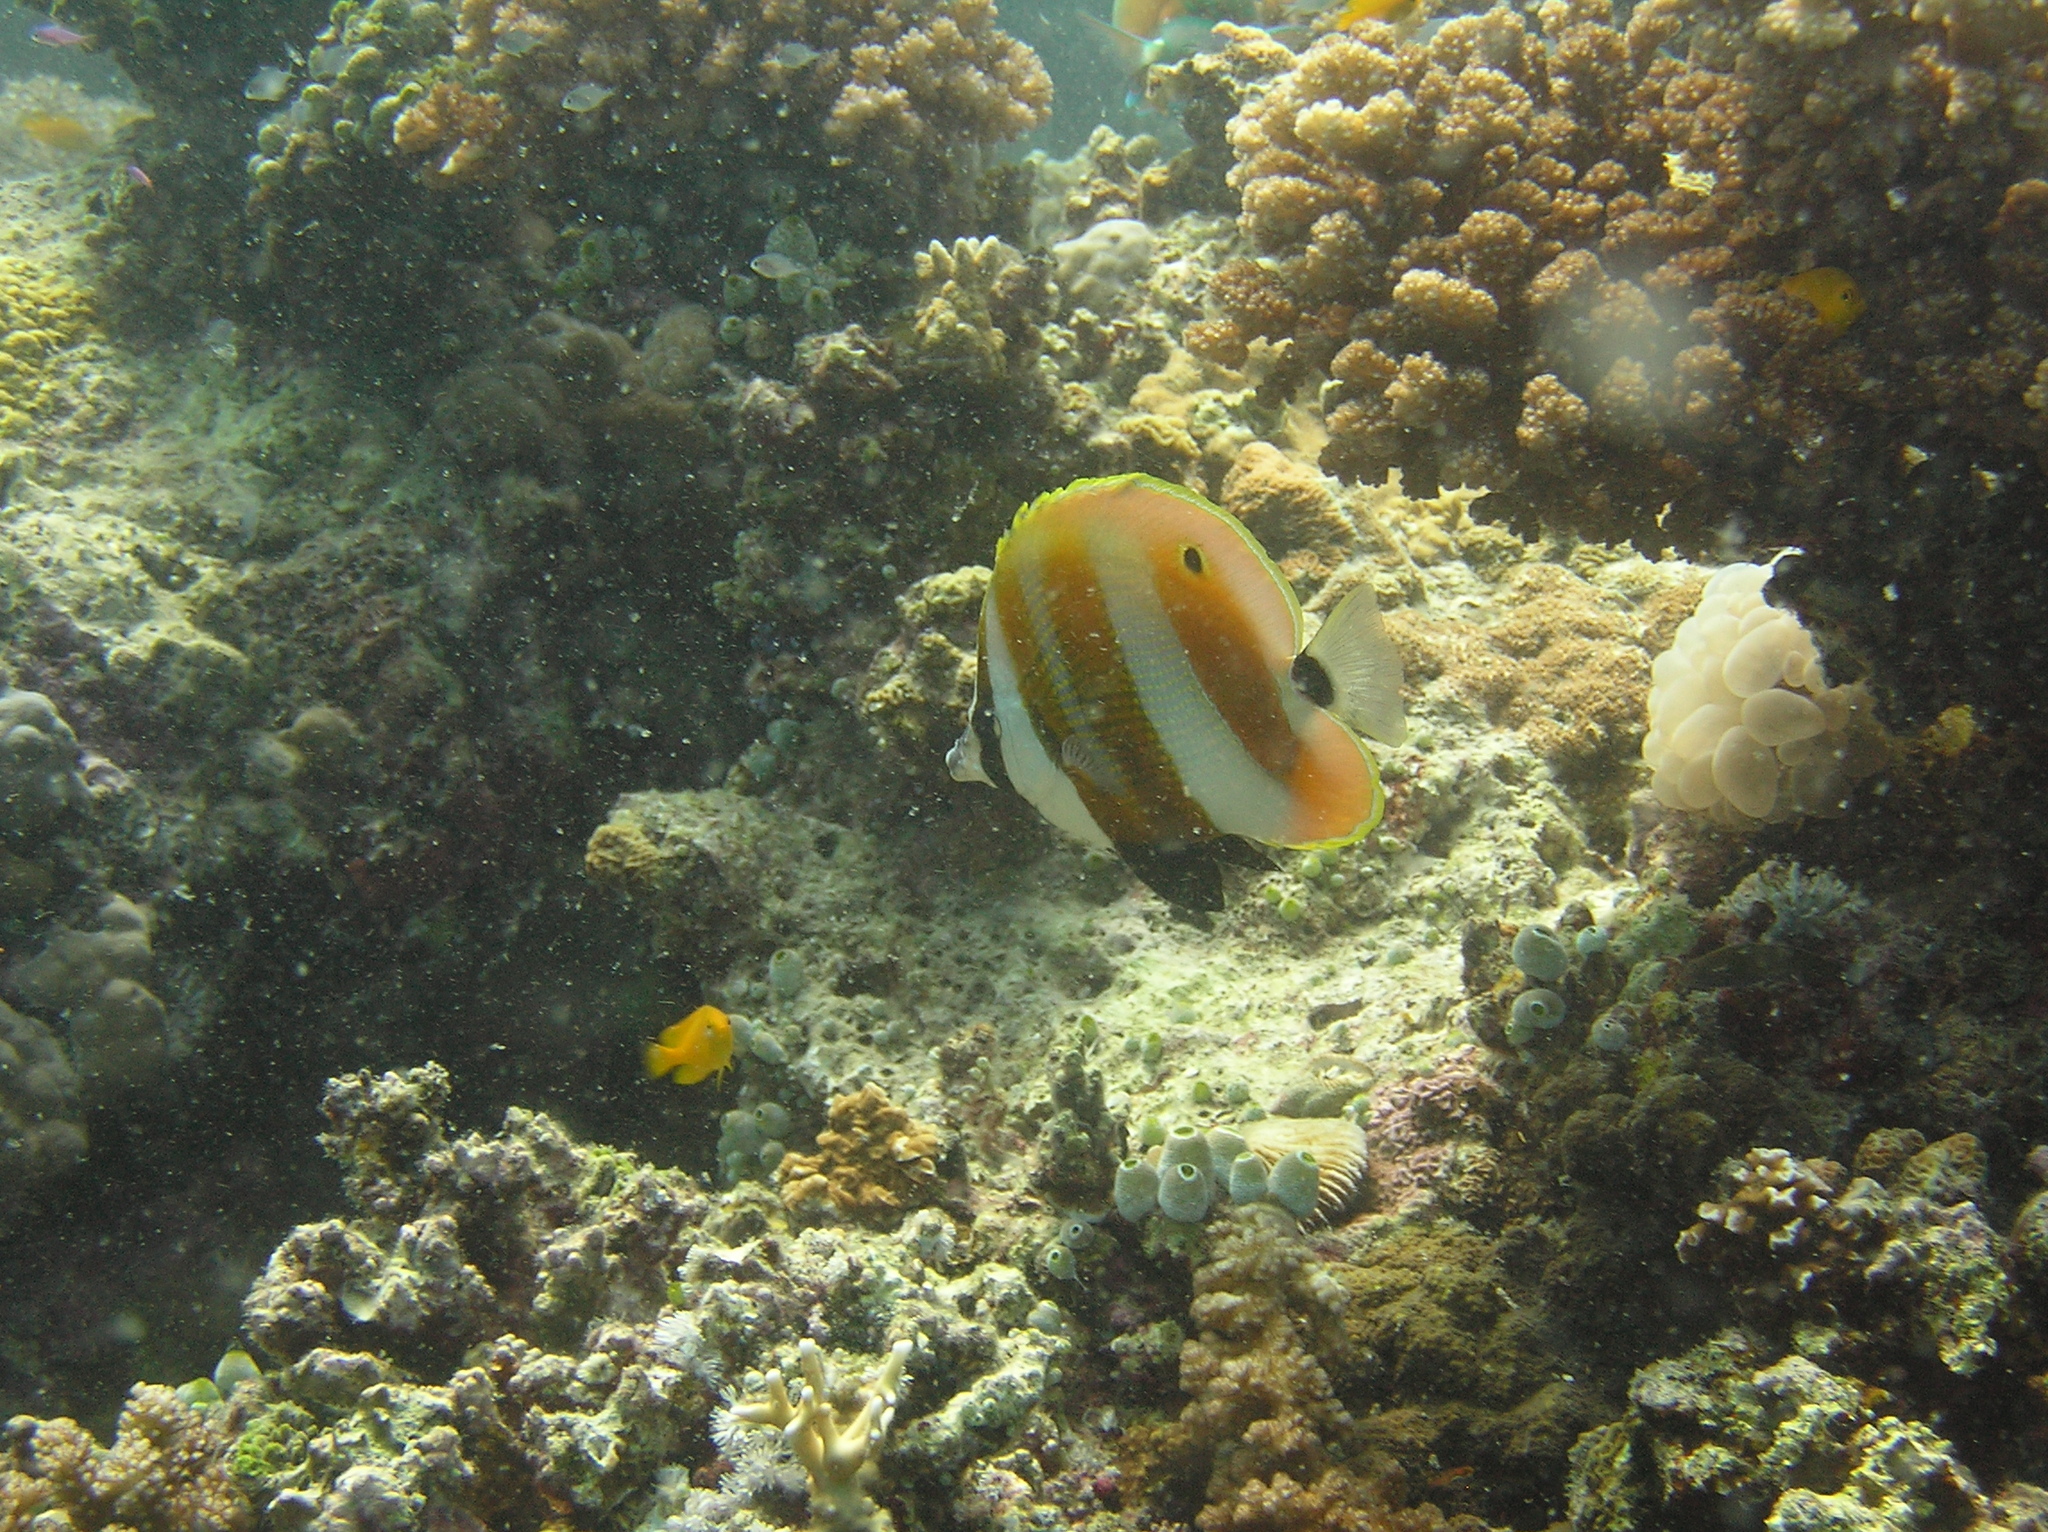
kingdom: Animalia
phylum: Chordata
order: Perciformes
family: Chaetodontidae
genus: Coradion
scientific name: Coradion chrysozonus
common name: Orange-banded coralfish
